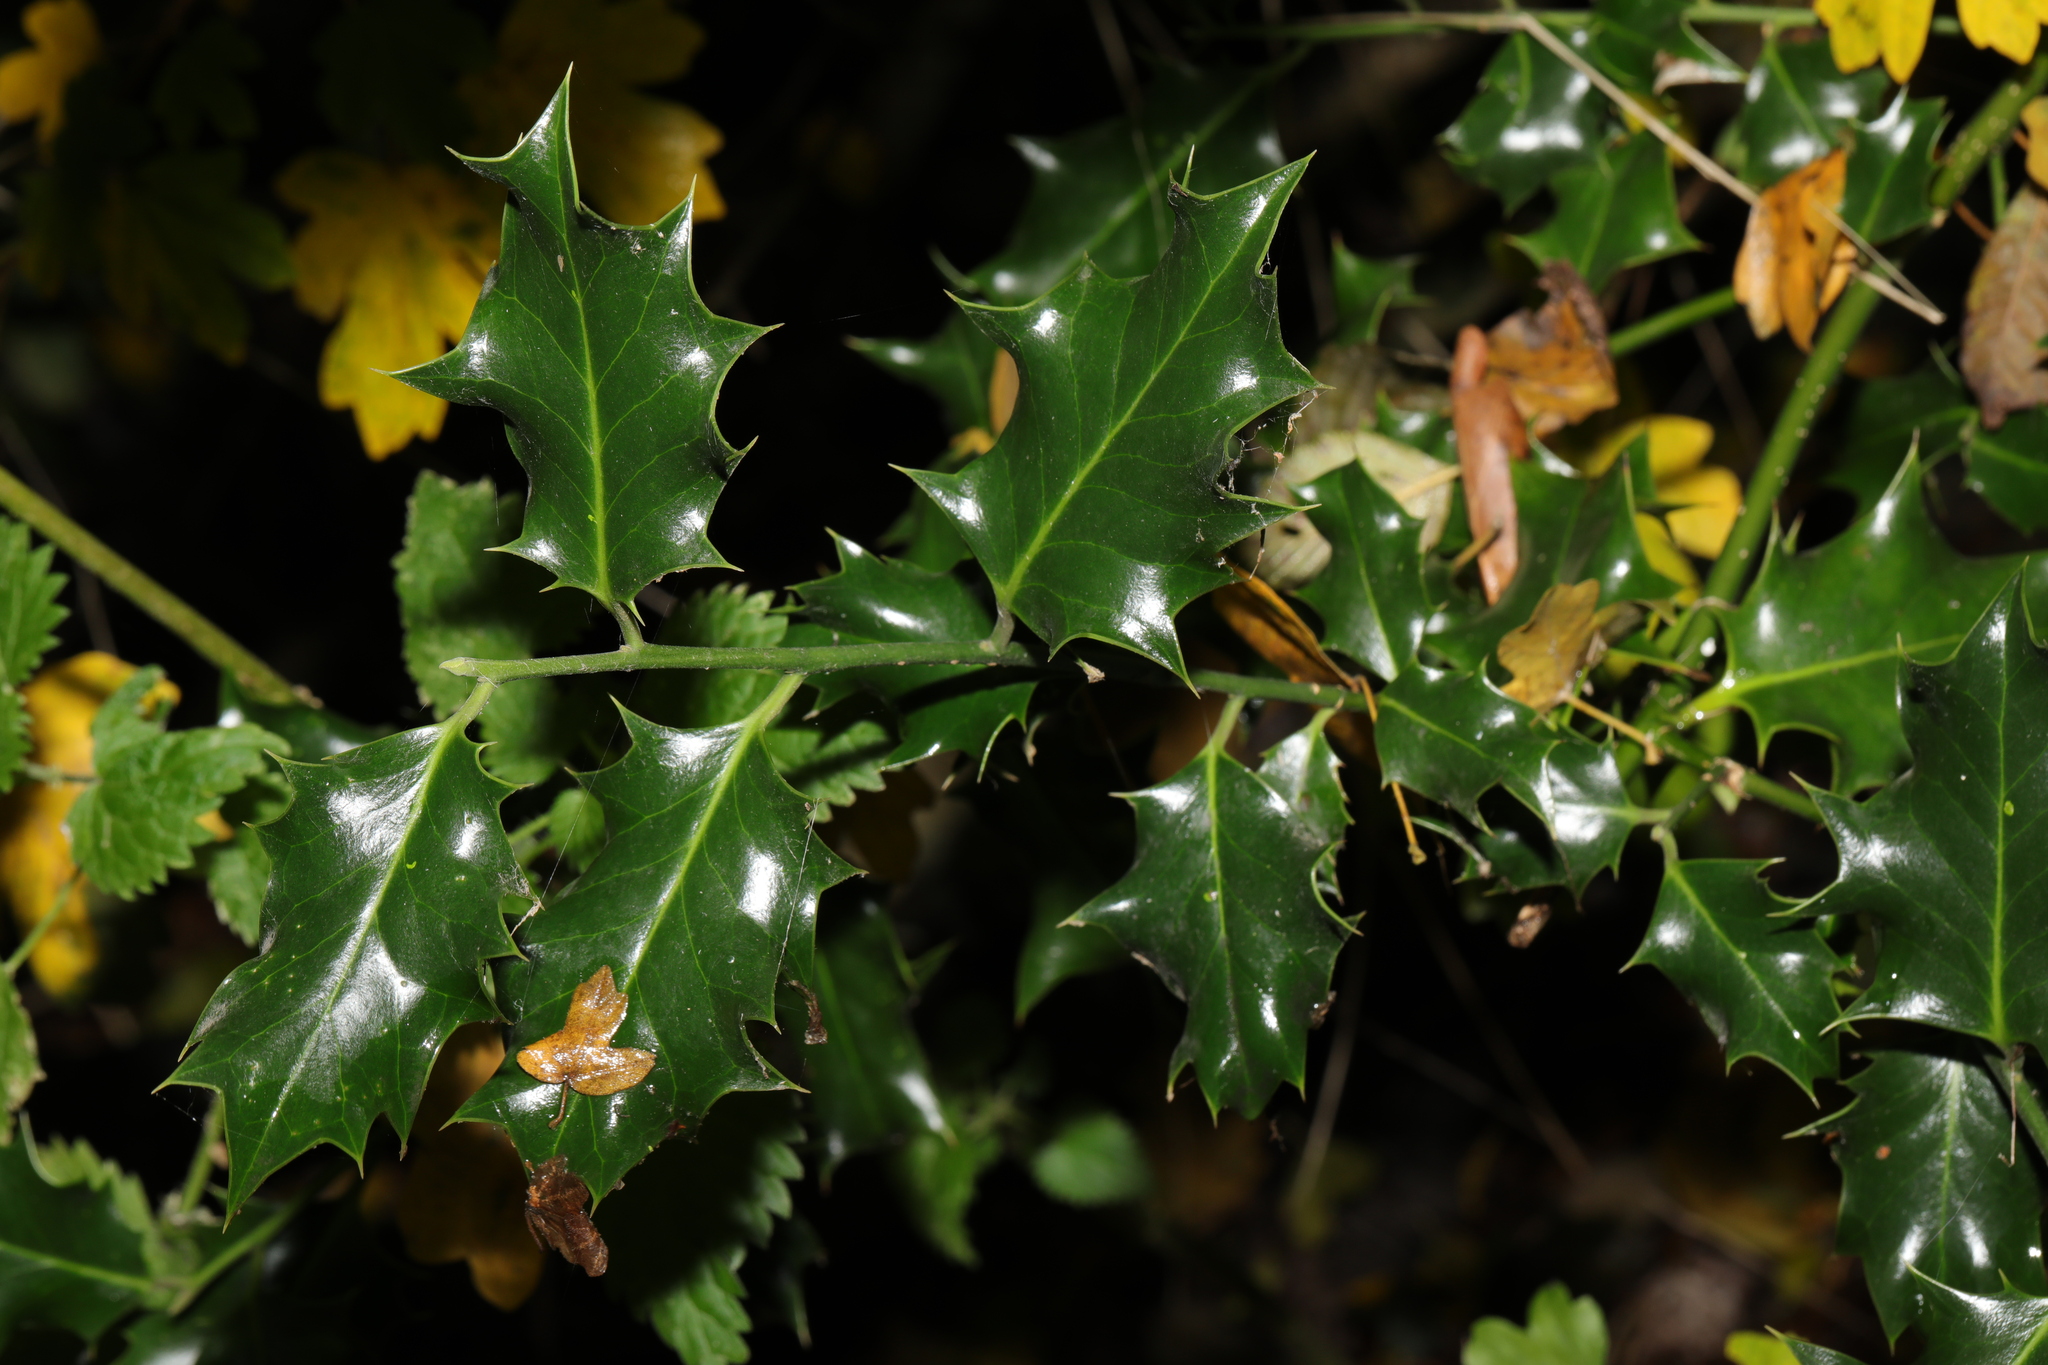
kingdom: Plantae
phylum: Tracheophyta
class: Magnoliopsida
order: Aquifoliales
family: Aquifoliaceae
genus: Ilex
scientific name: Ilex aquifolium
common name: English holly
